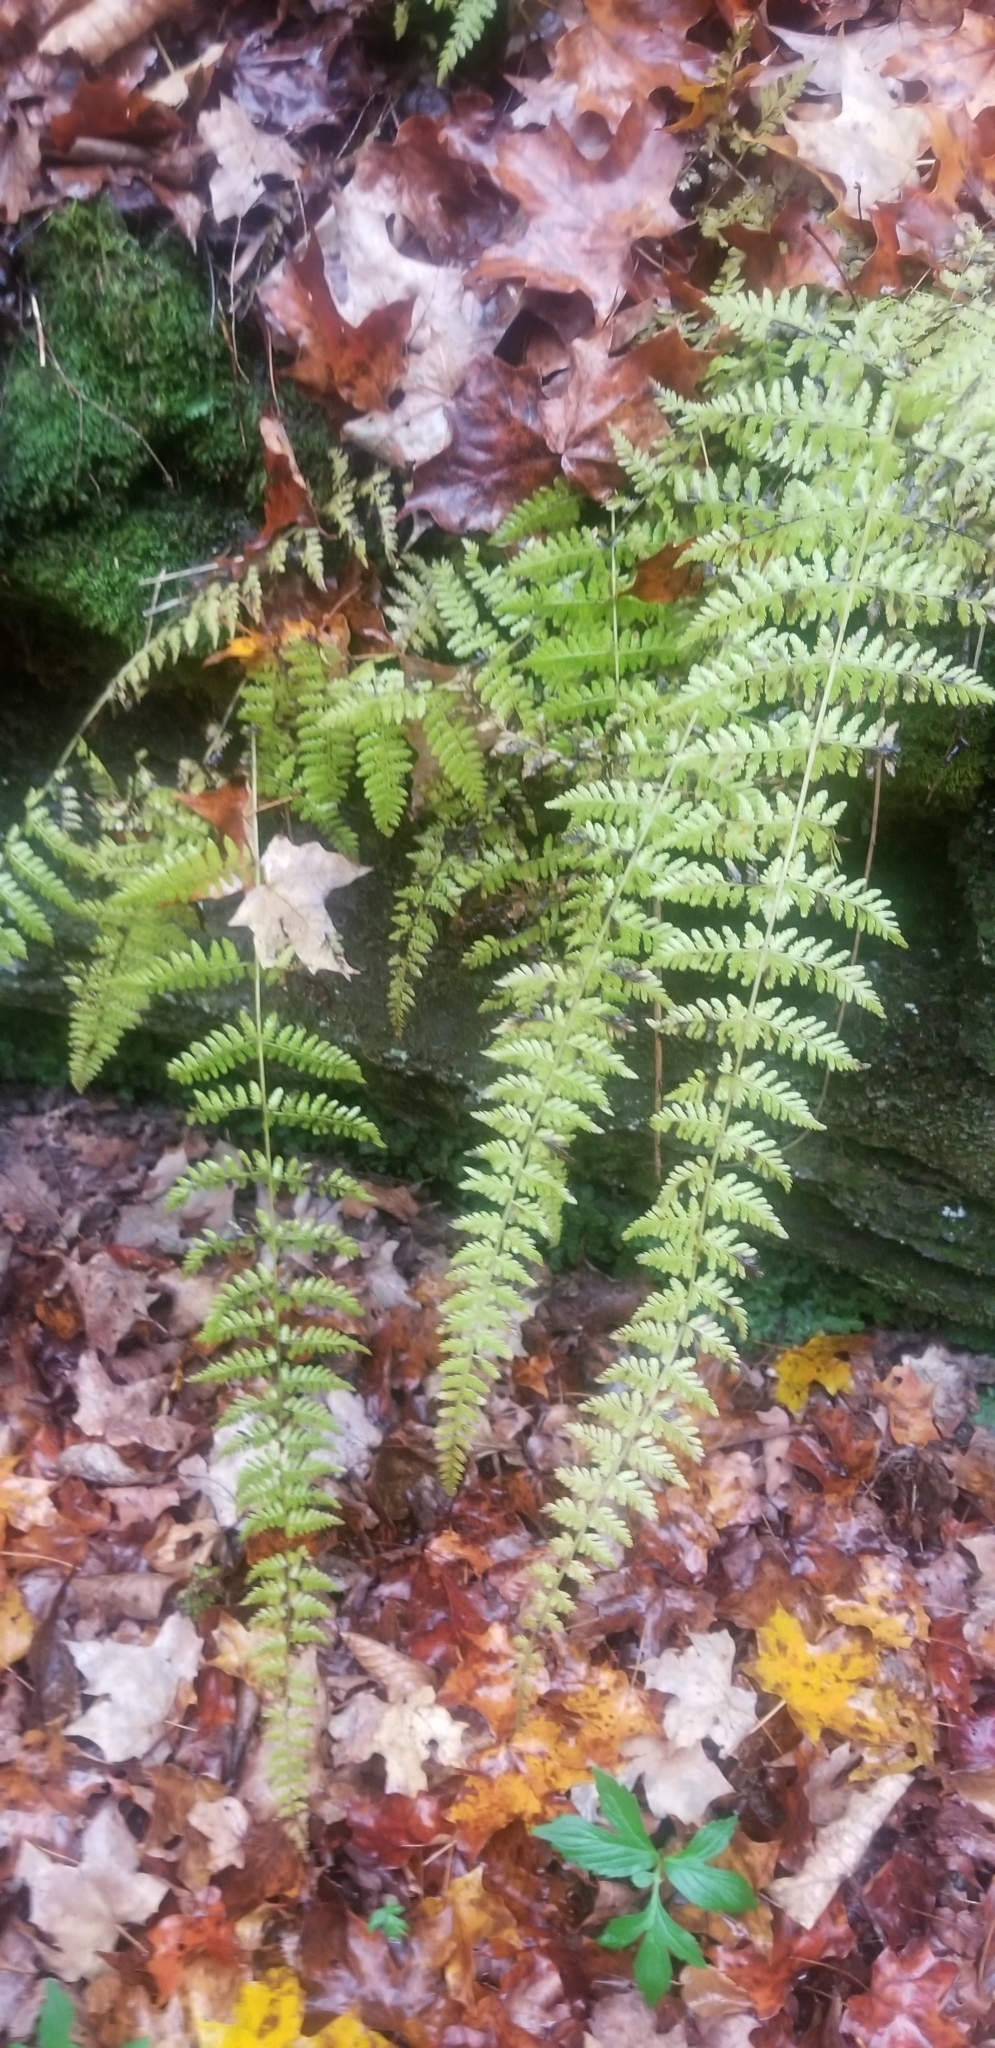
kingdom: Plantae
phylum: Tracheophyta
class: Polypodiopsida
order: Polypodiales
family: Cystopteridaceae
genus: Cystopteris
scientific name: Cystopteris bulbifera
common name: Bulblet bladder fern
